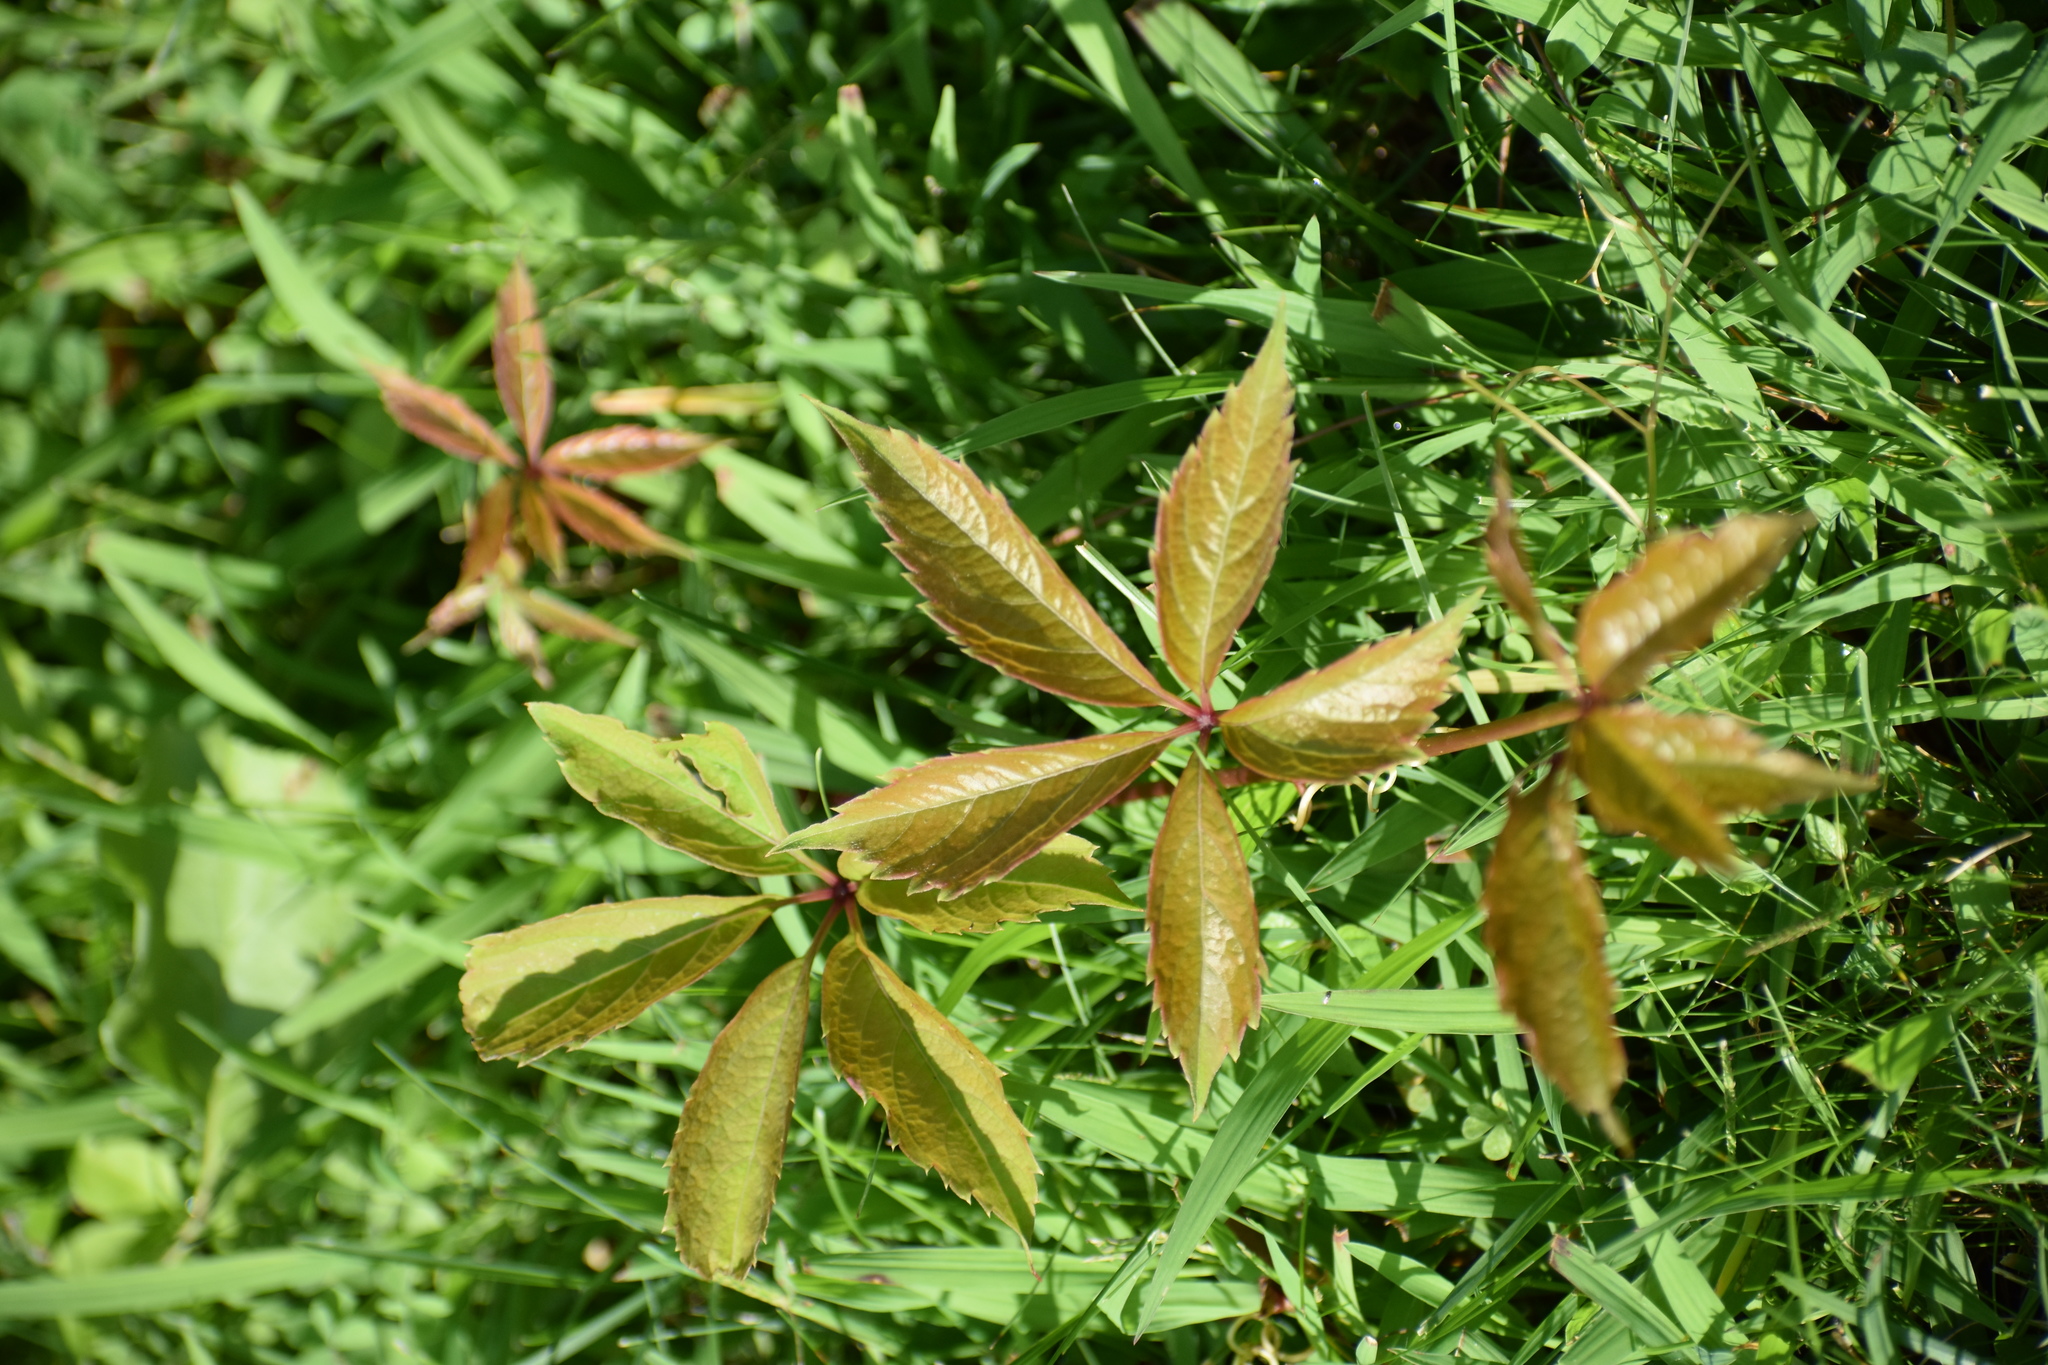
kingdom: Plantae
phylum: Tracheophyta
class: Magnoliopsida
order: Vitales
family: Vitaceae
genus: Parthenocissus
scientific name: Parthenocissus quinquefolia
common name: Virginia-creeper
